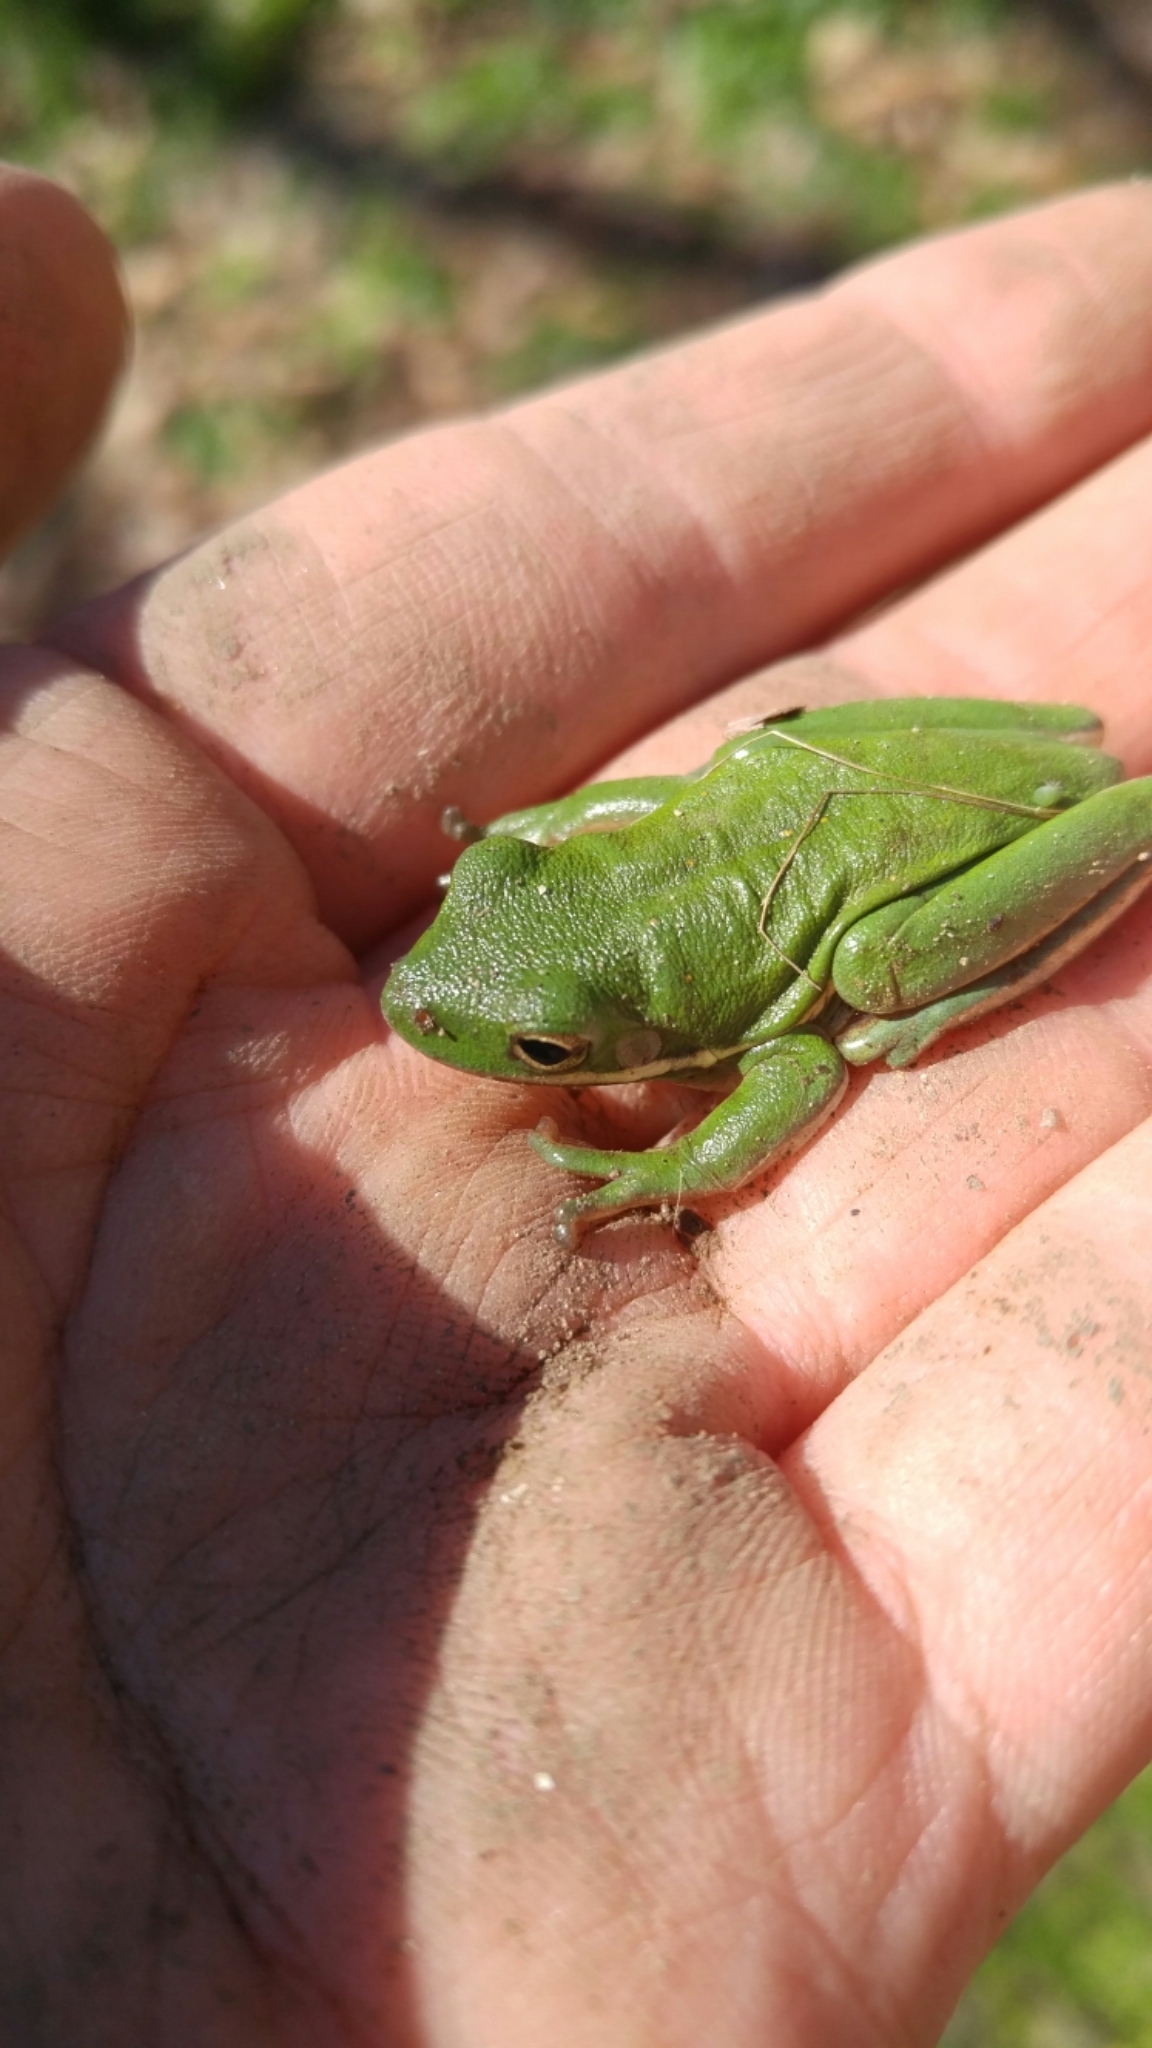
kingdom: Animalia
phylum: Chordata
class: Amphibia
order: Anura
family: Hylidae
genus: Dryophytes
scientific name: Dryophytes cinereus
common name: Green treefrog
